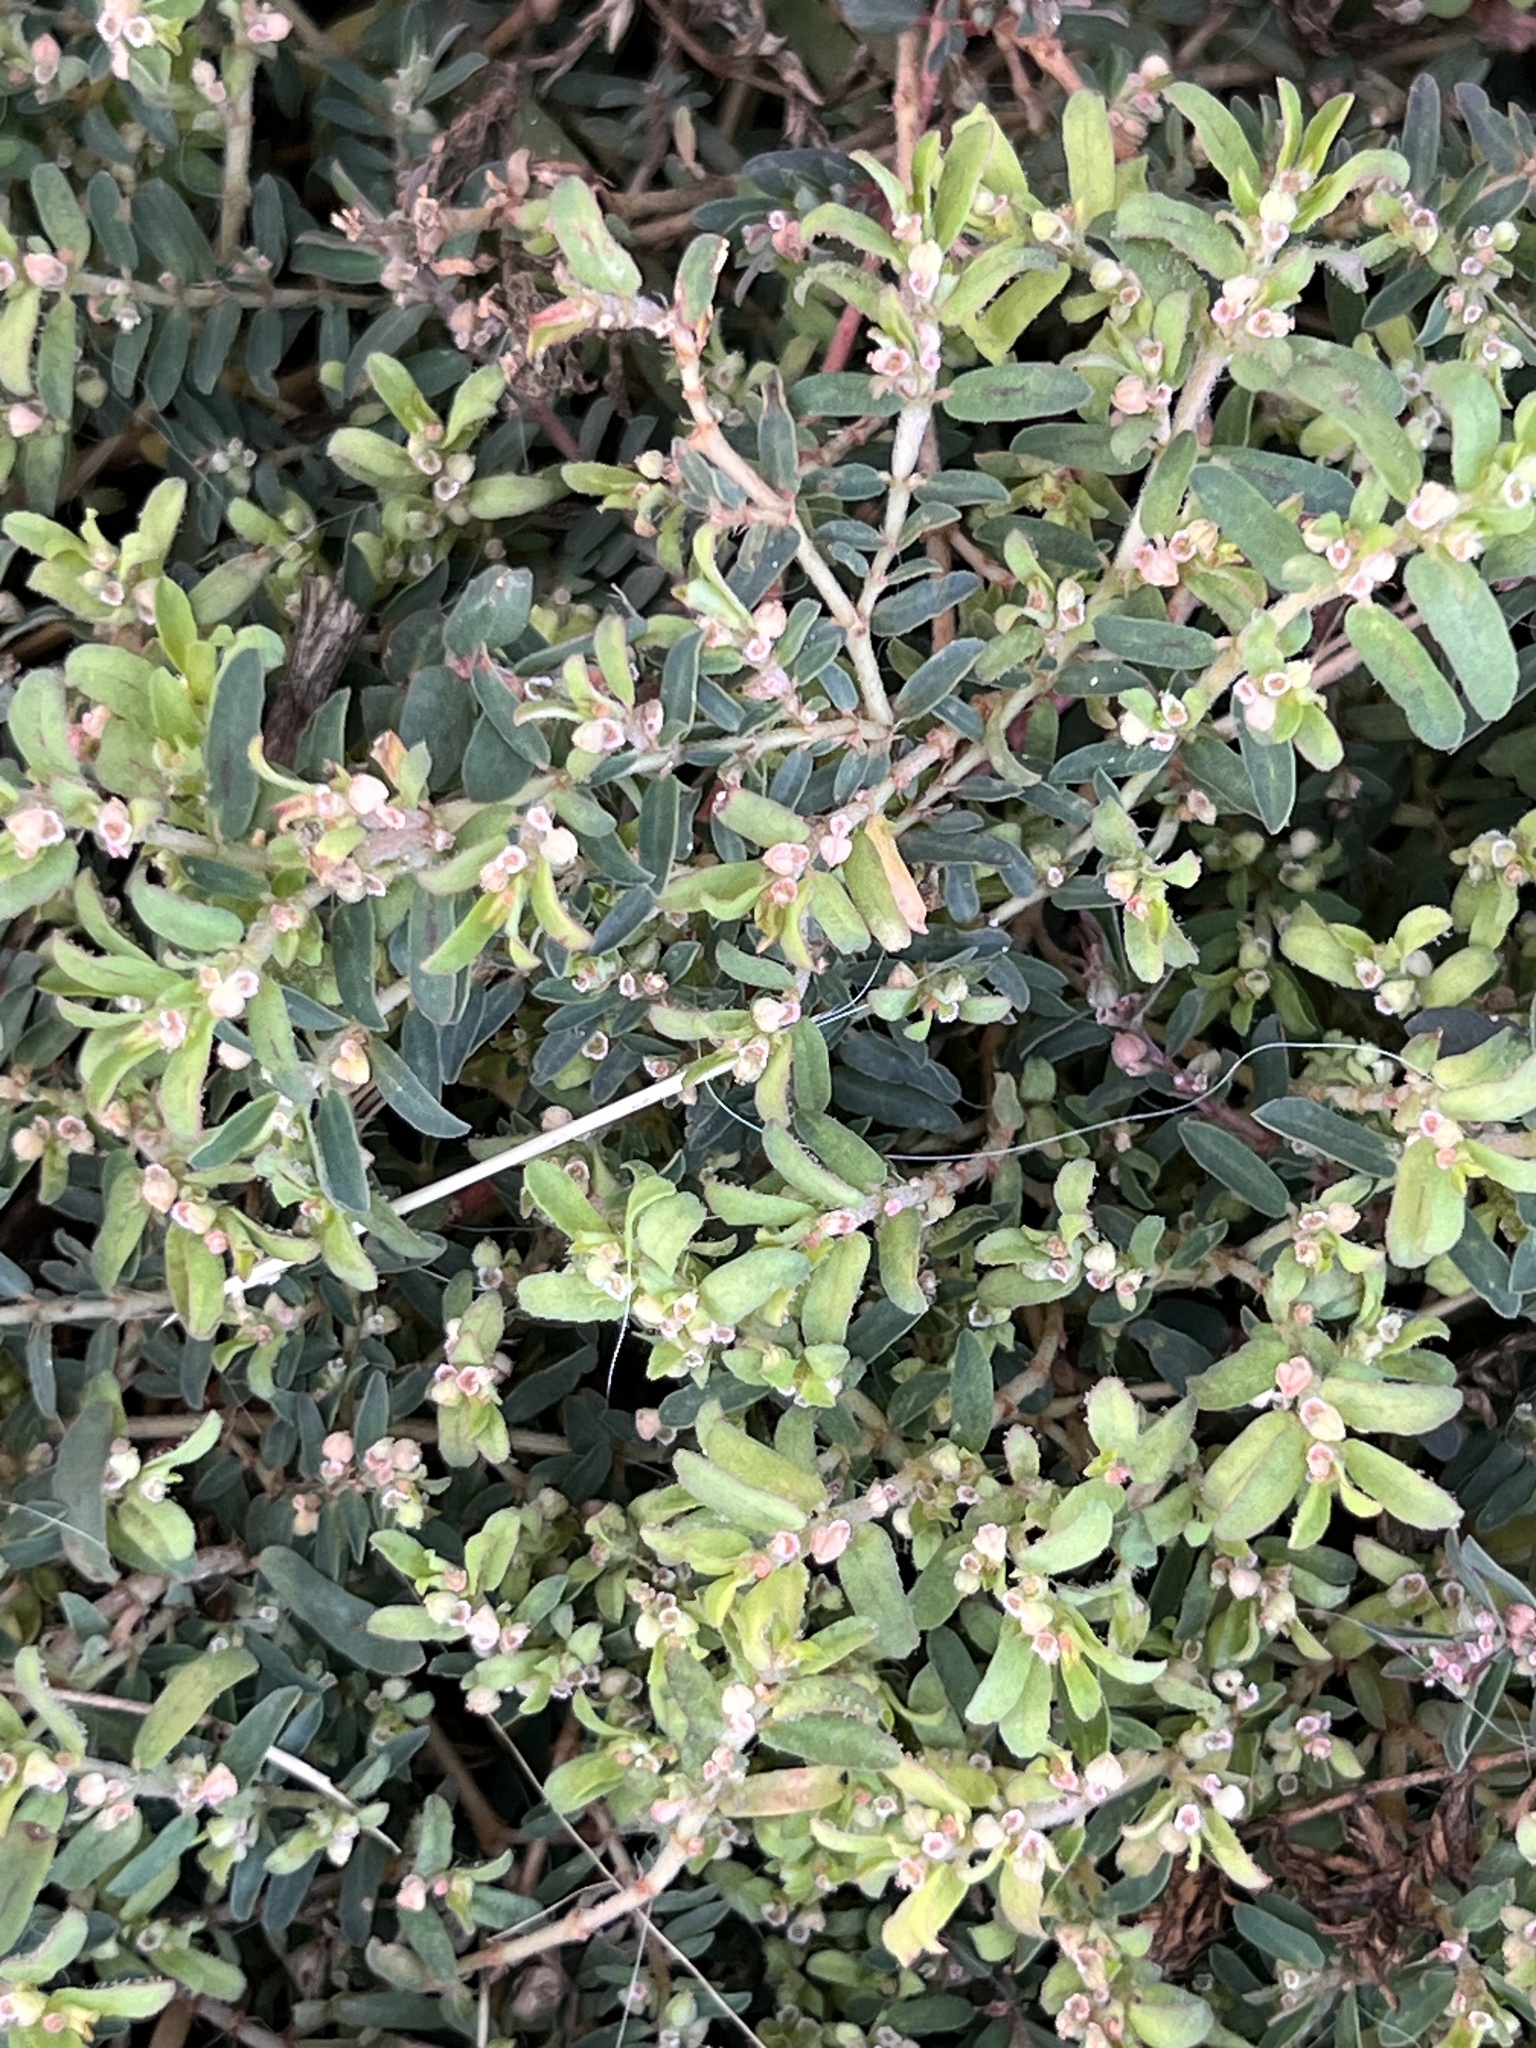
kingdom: Plantae
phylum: Tracheophyta
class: Magnoliopsida
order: Malpighiales
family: Euphorbiaceae
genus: Euphorbia
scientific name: Euphorbia maculata
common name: Spotted spurge
